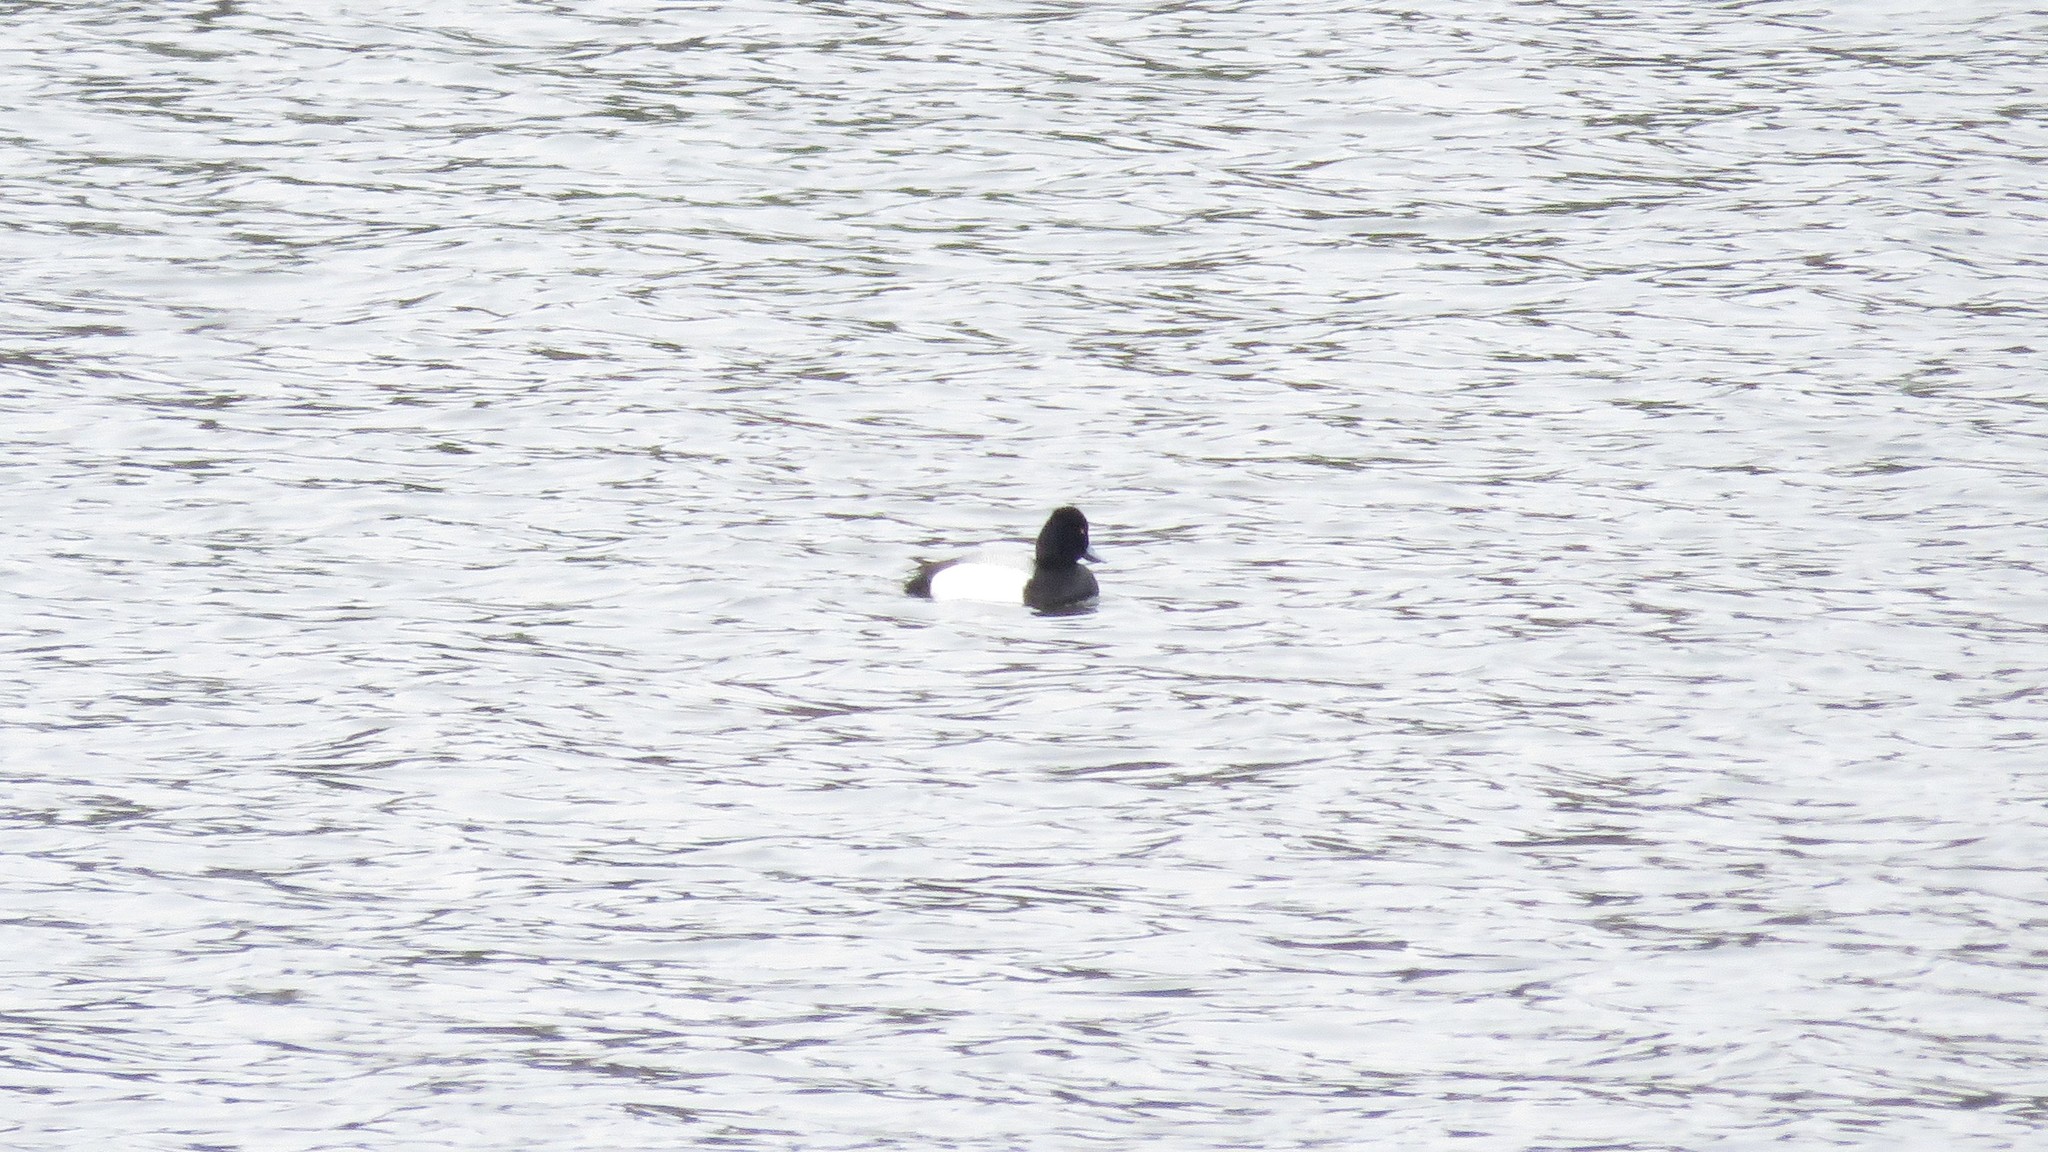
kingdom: Animalia
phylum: Chordata
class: Aves
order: Anseriformes
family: Anatidae
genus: Aythya
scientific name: Aythya affinis
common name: Lesser scaup
